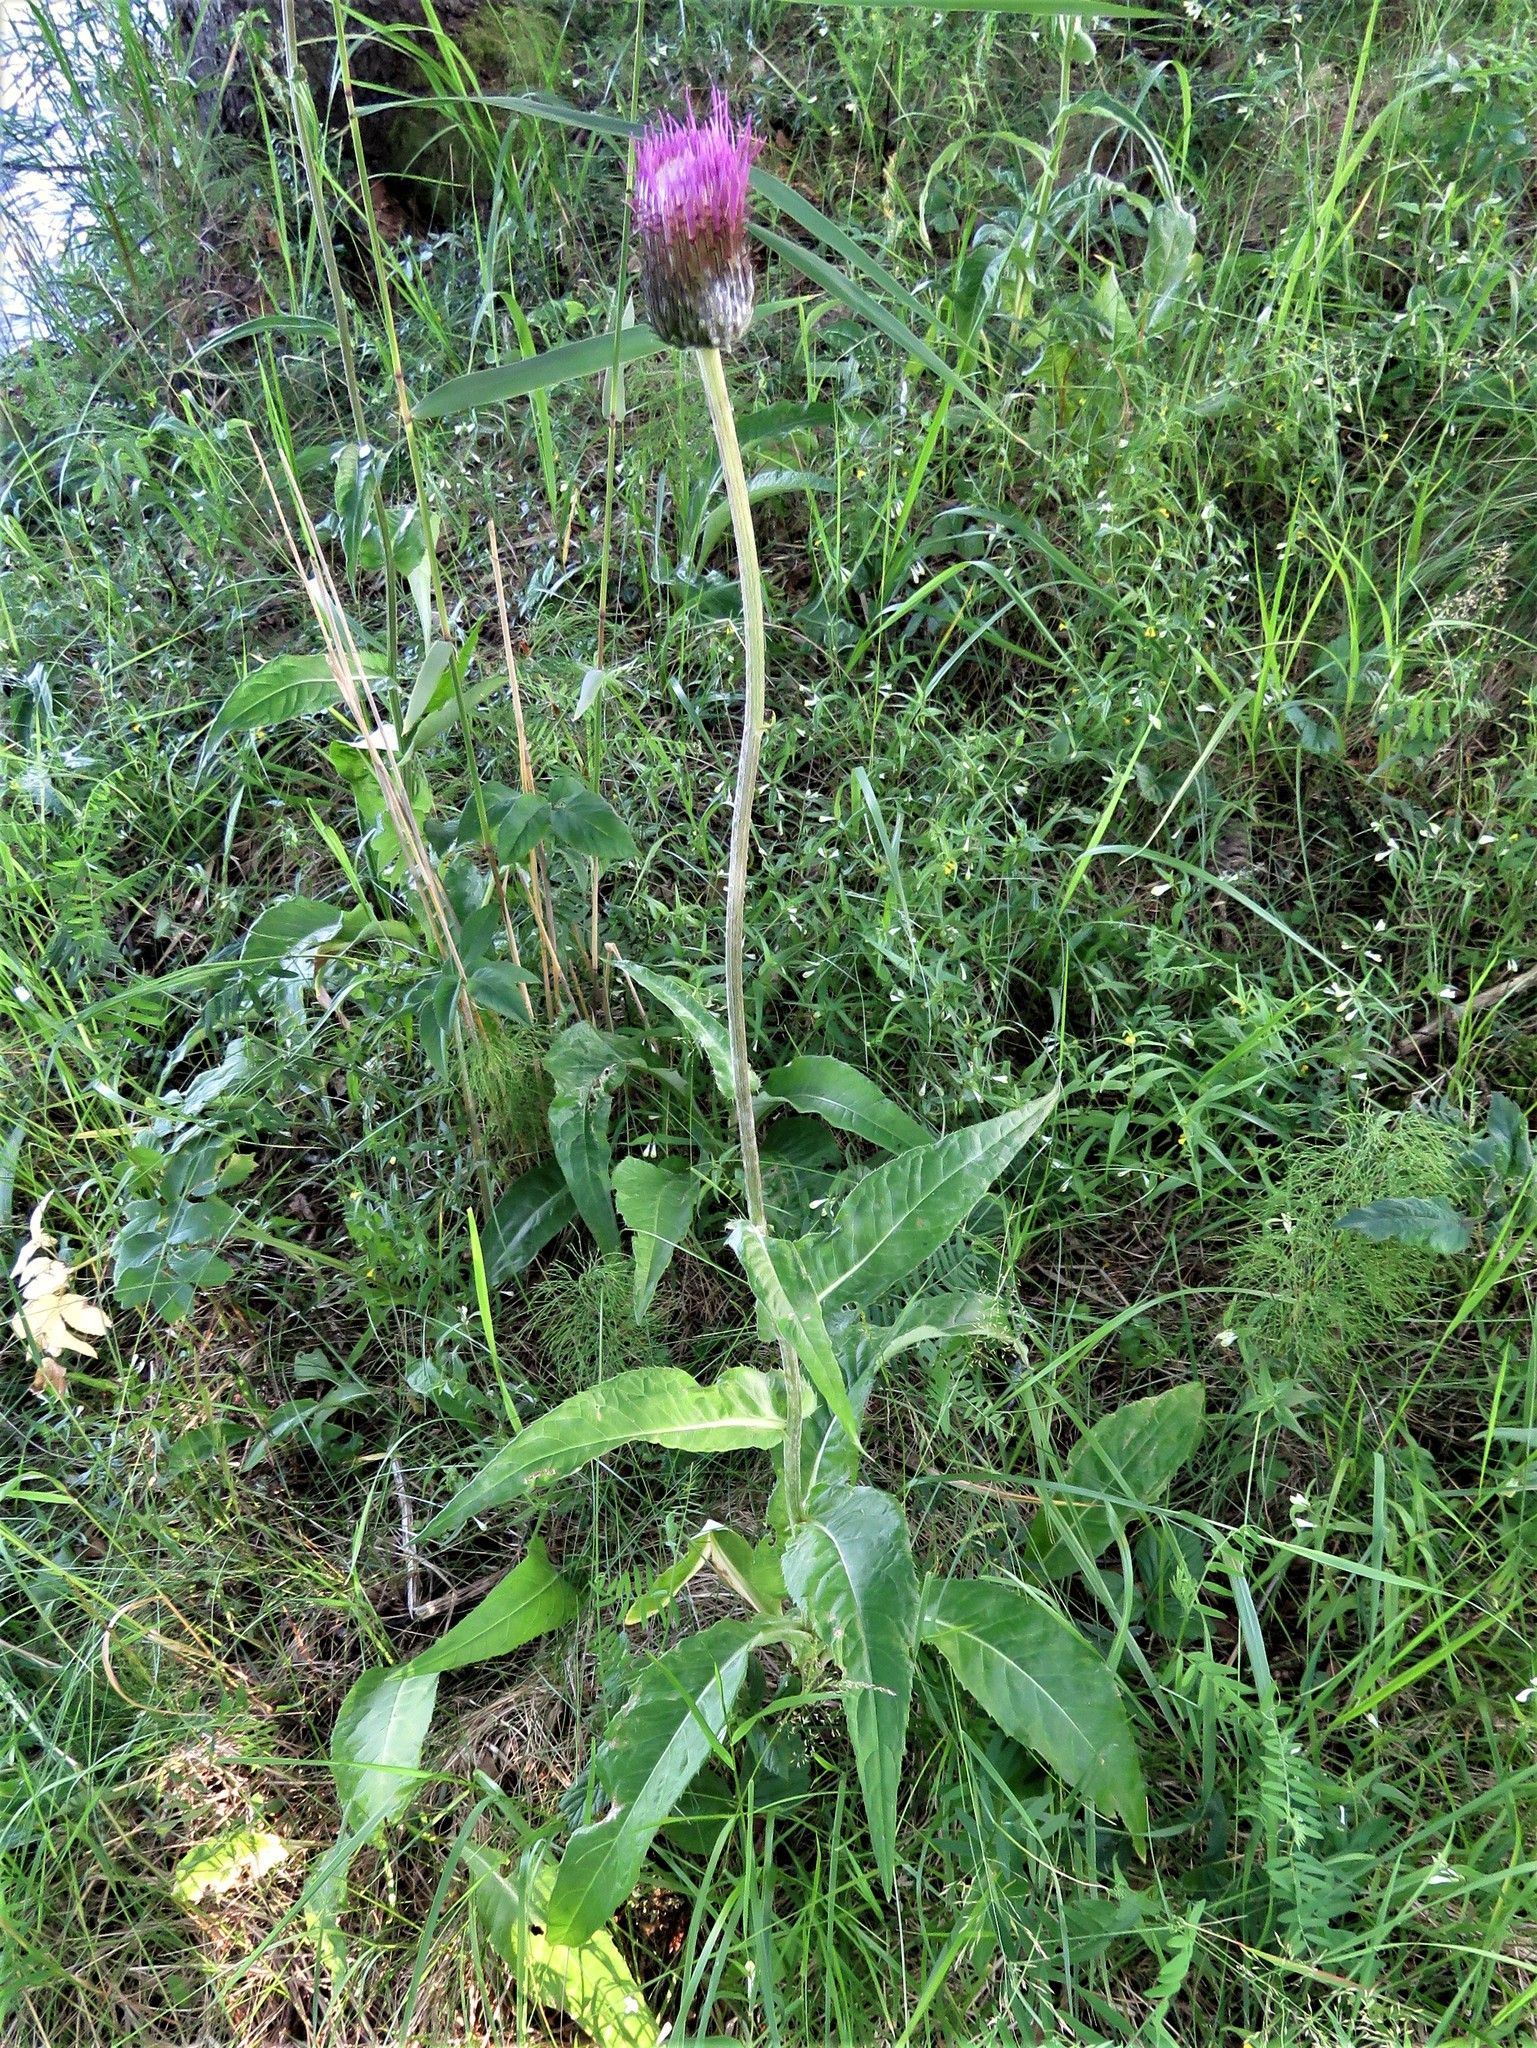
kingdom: Plantae
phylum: Tracheophyta
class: Magnoliopsida
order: Asterales
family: Asteraceae
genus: Cirsium
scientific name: Cirsium heterophyllum
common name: Melancholy thistle
